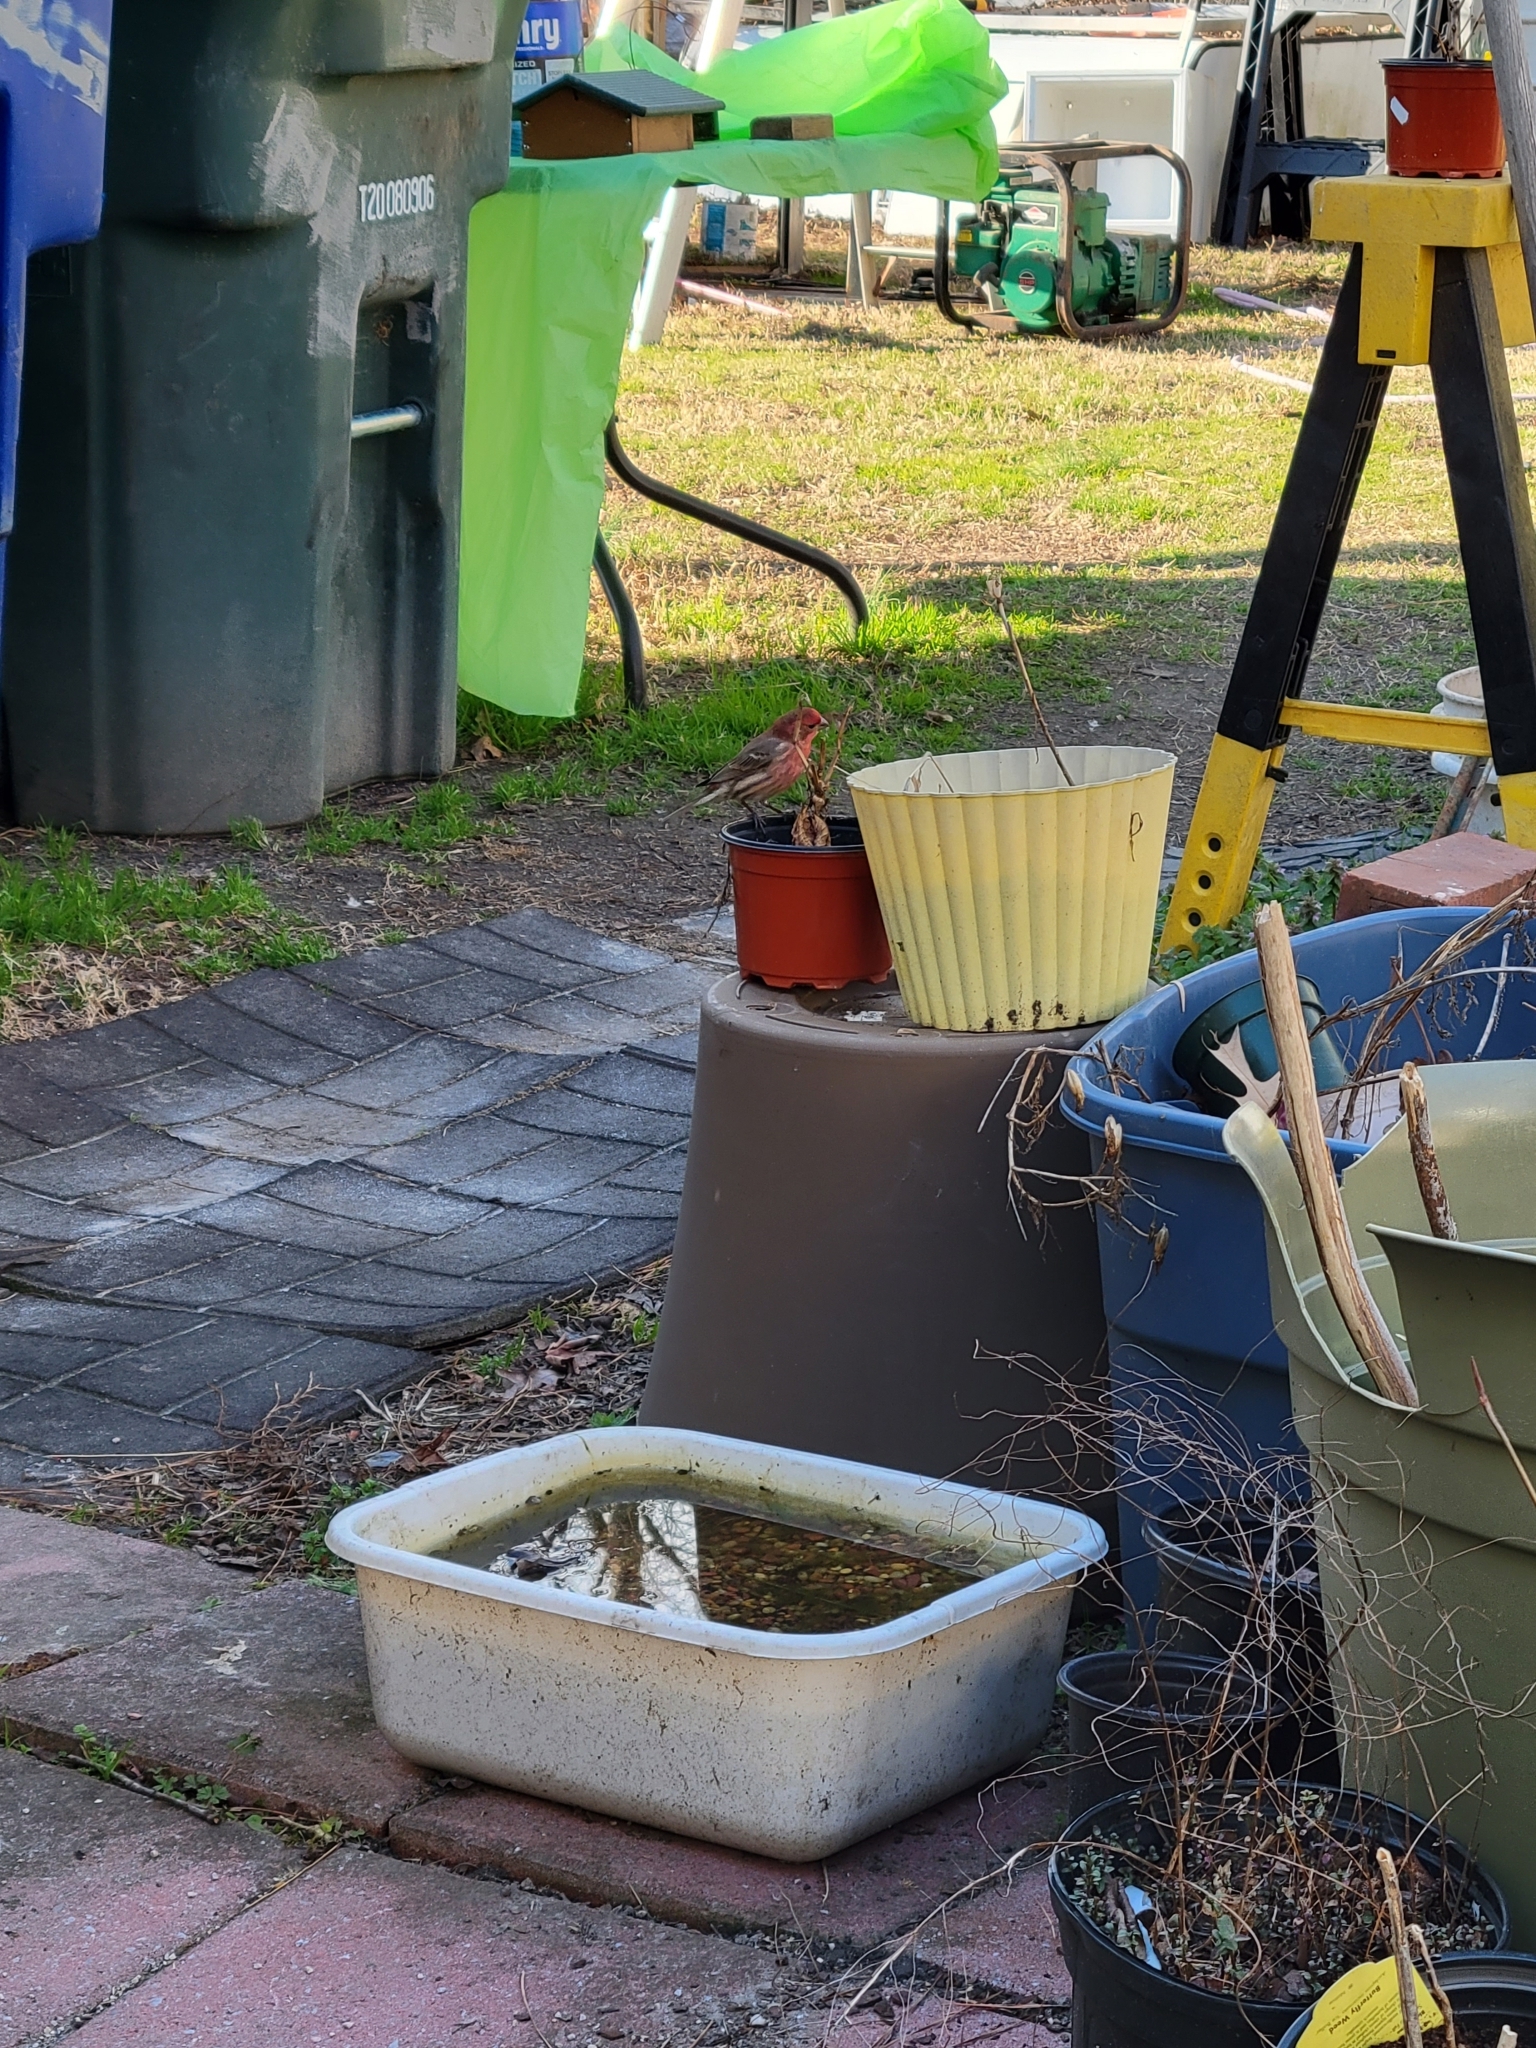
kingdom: Animalia
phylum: Chordata
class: Aves
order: Passeriformes
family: Fringillidae
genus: Haemorhous
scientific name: Haemorhous mexicanus
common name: House finch
